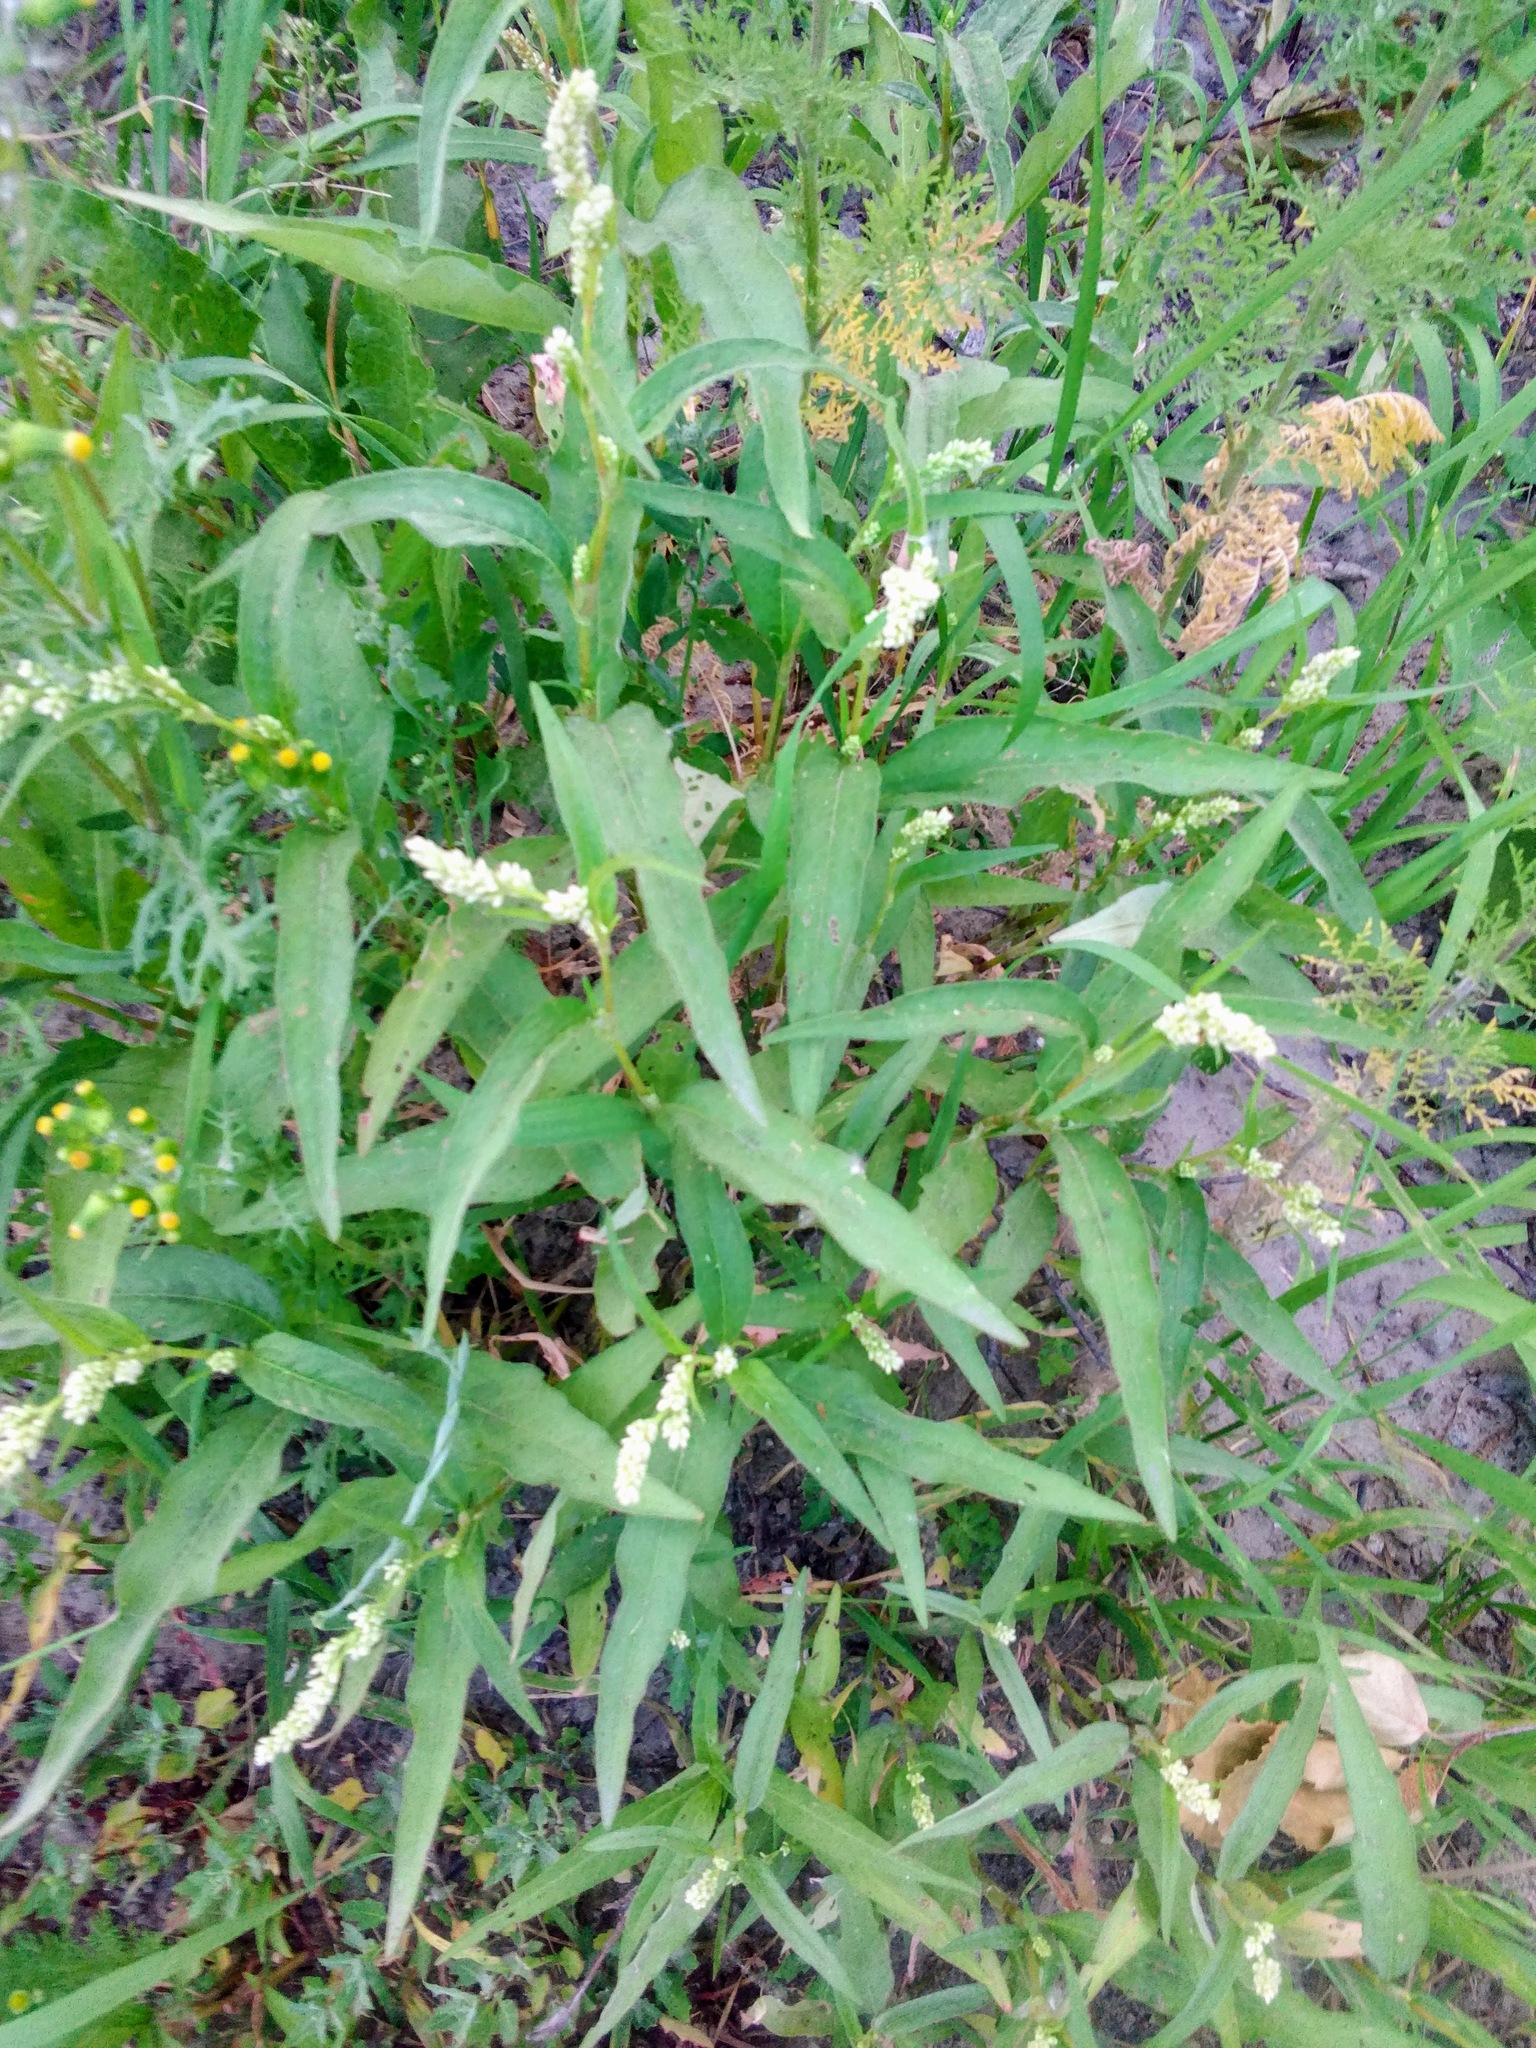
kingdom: Plantae
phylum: Tracheophyta
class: Magnoliopsida
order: Caryophyllales
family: Polygonaceae
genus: Persicaria
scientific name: Persicaria lapathifolia
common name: Curlytop knotweed
